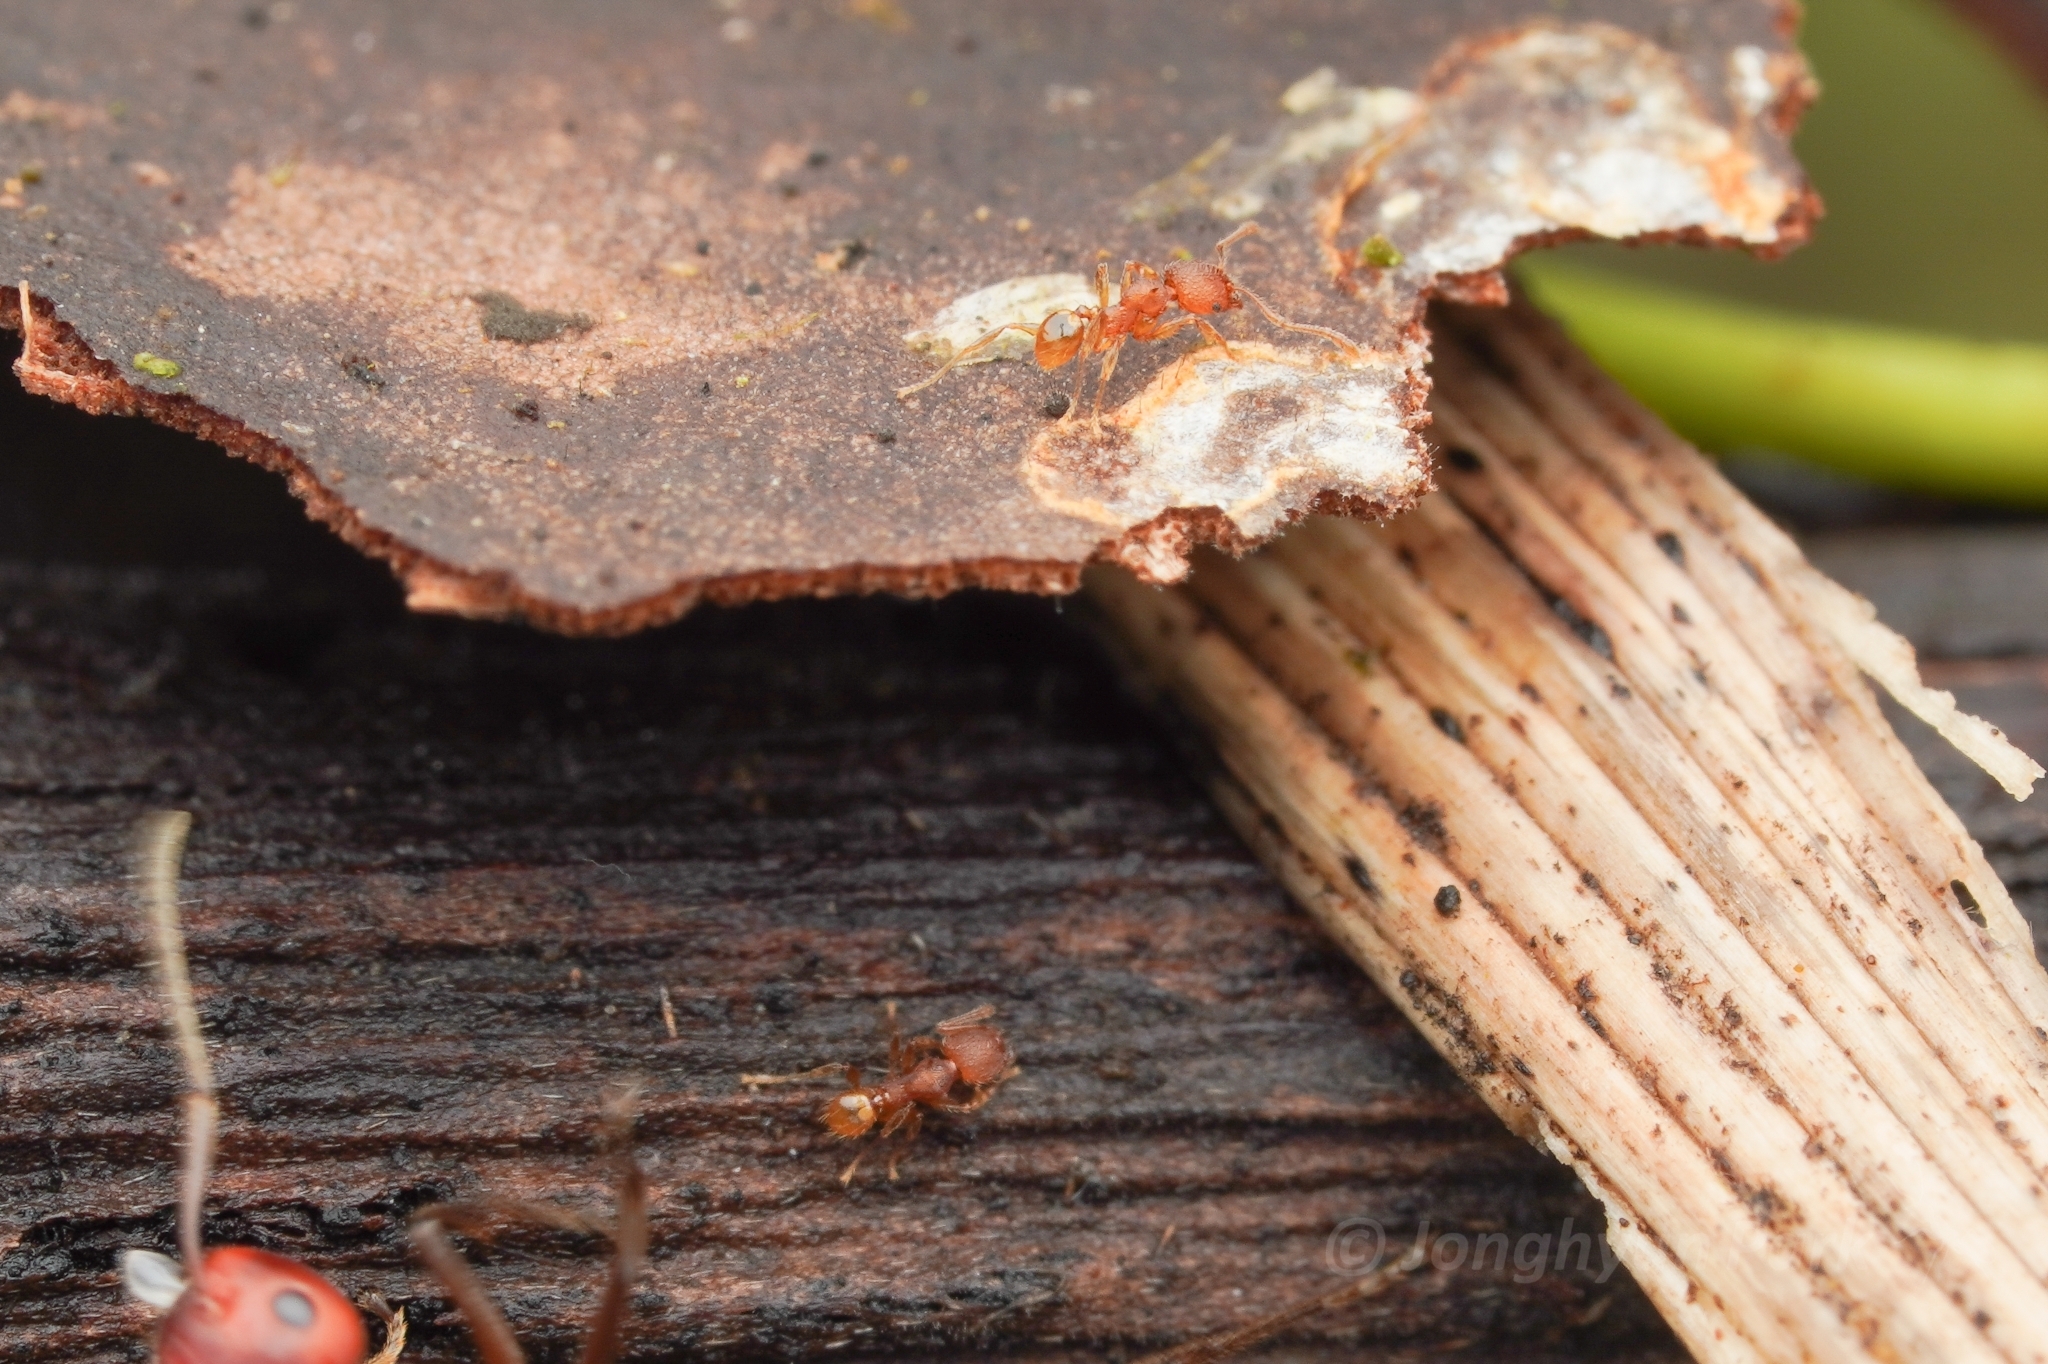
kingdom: Animalia
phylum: Arthropoda
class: Insecta
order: Hymenoptera
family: Formicidae
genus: Pheidole
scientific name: Pheidole aristotelis
